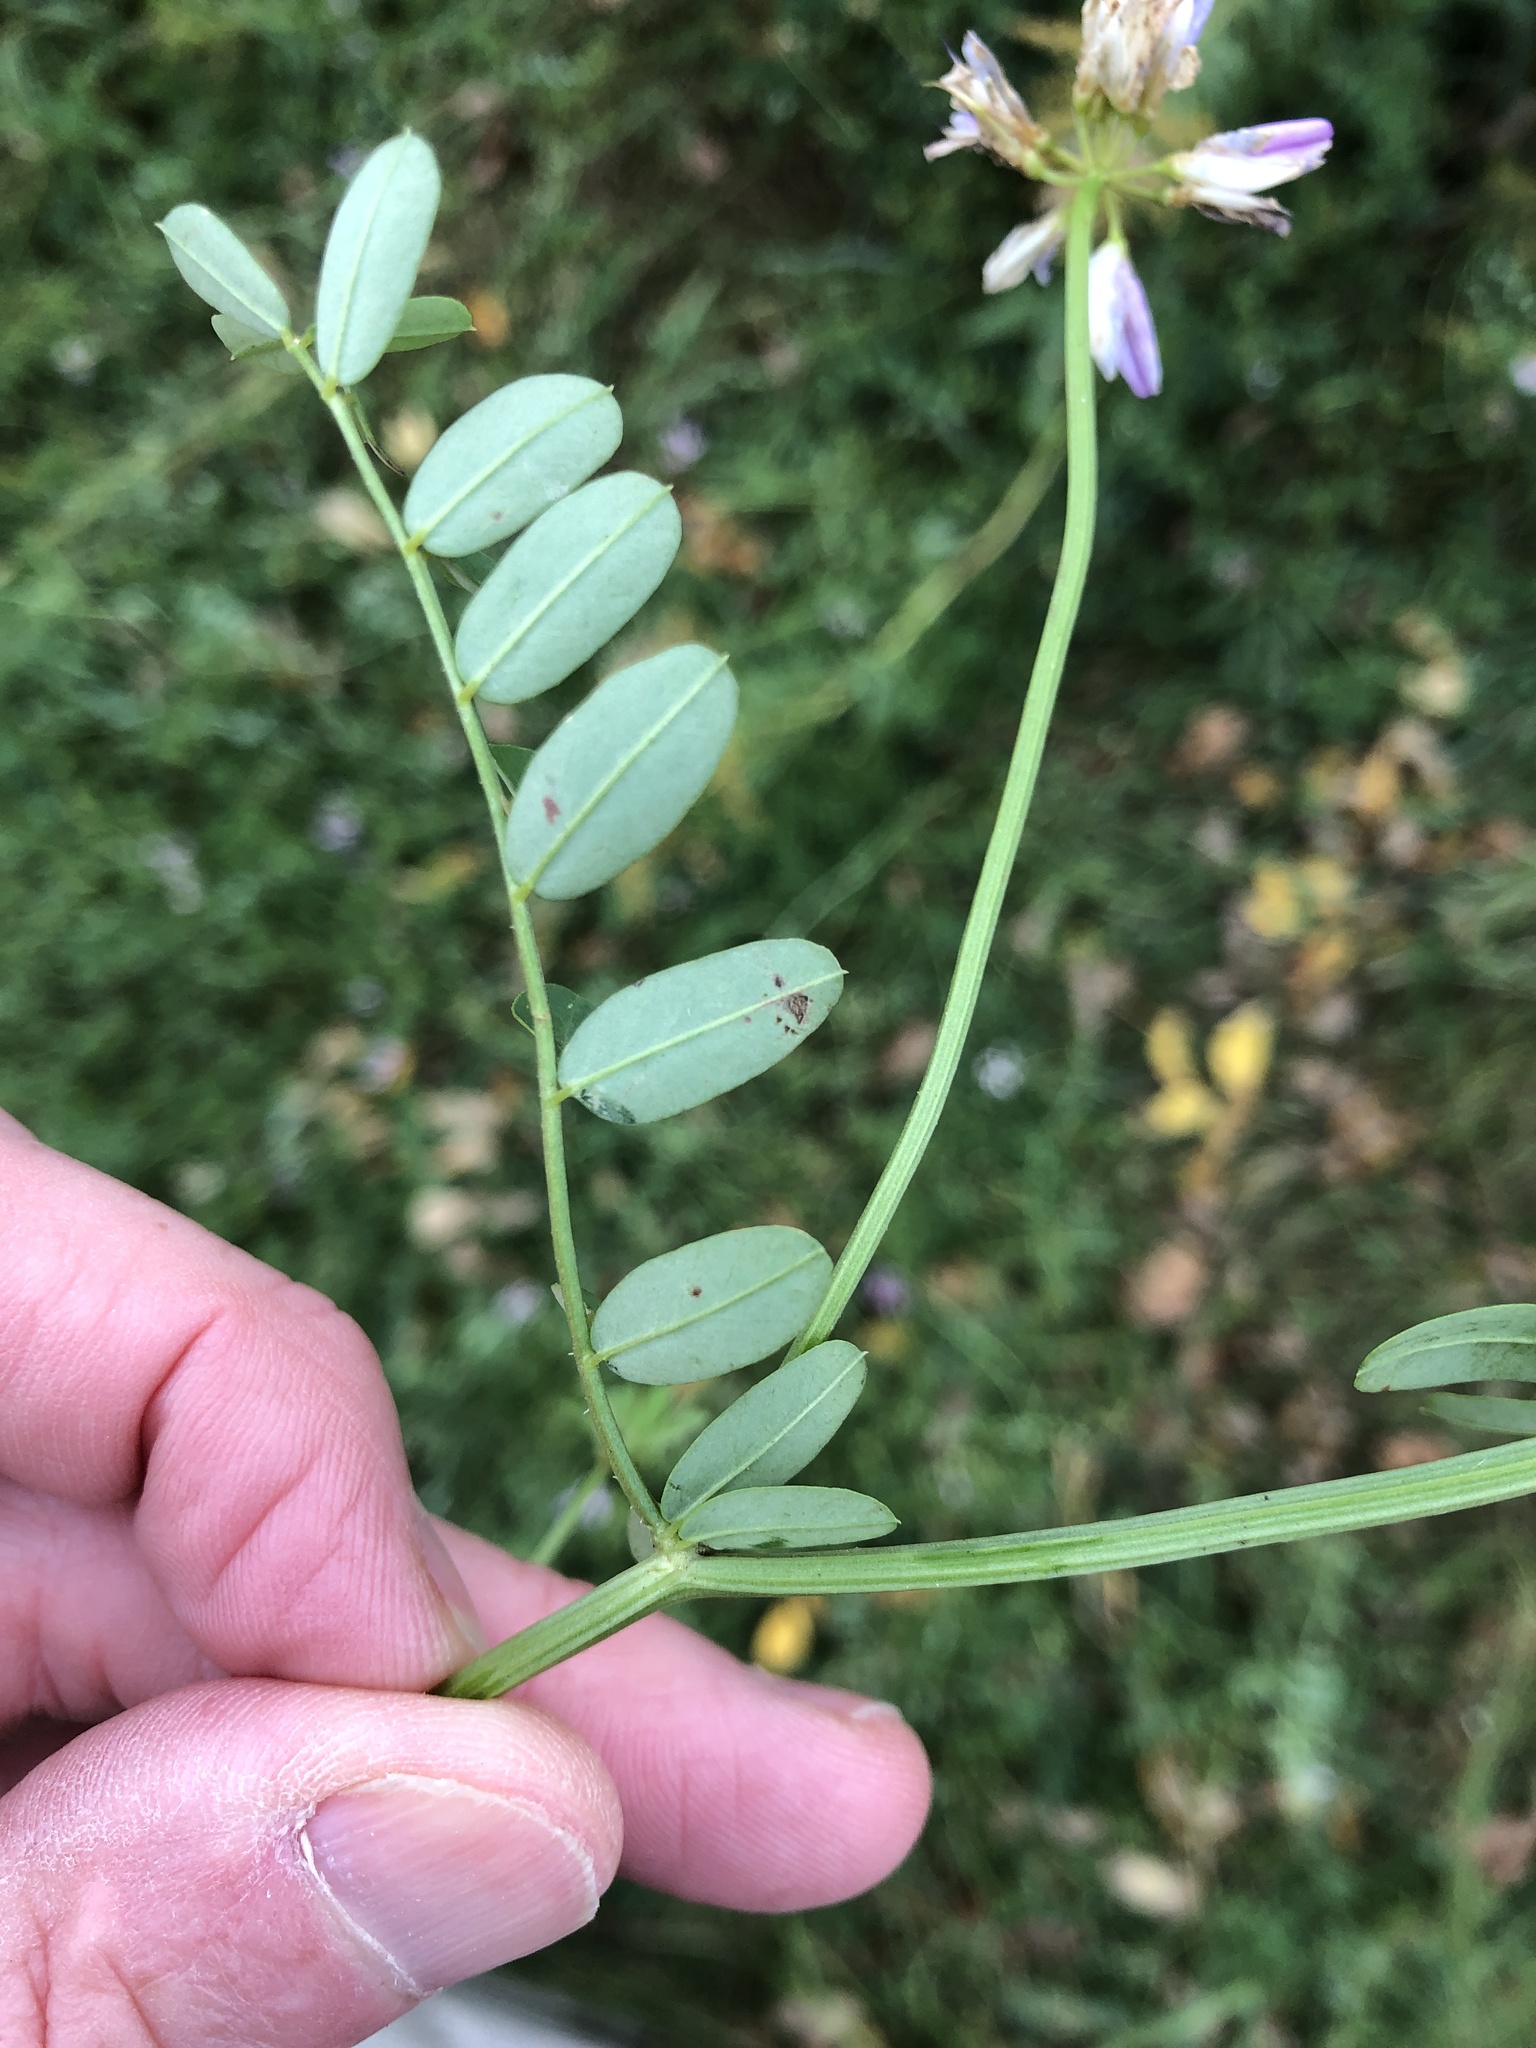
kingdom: Plantae
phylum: Tracheophyta
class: Magnoliopsida
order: Fabales
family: Fabaceae
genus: Coronilla
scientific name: Coronilla varia
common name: Crownvetch
